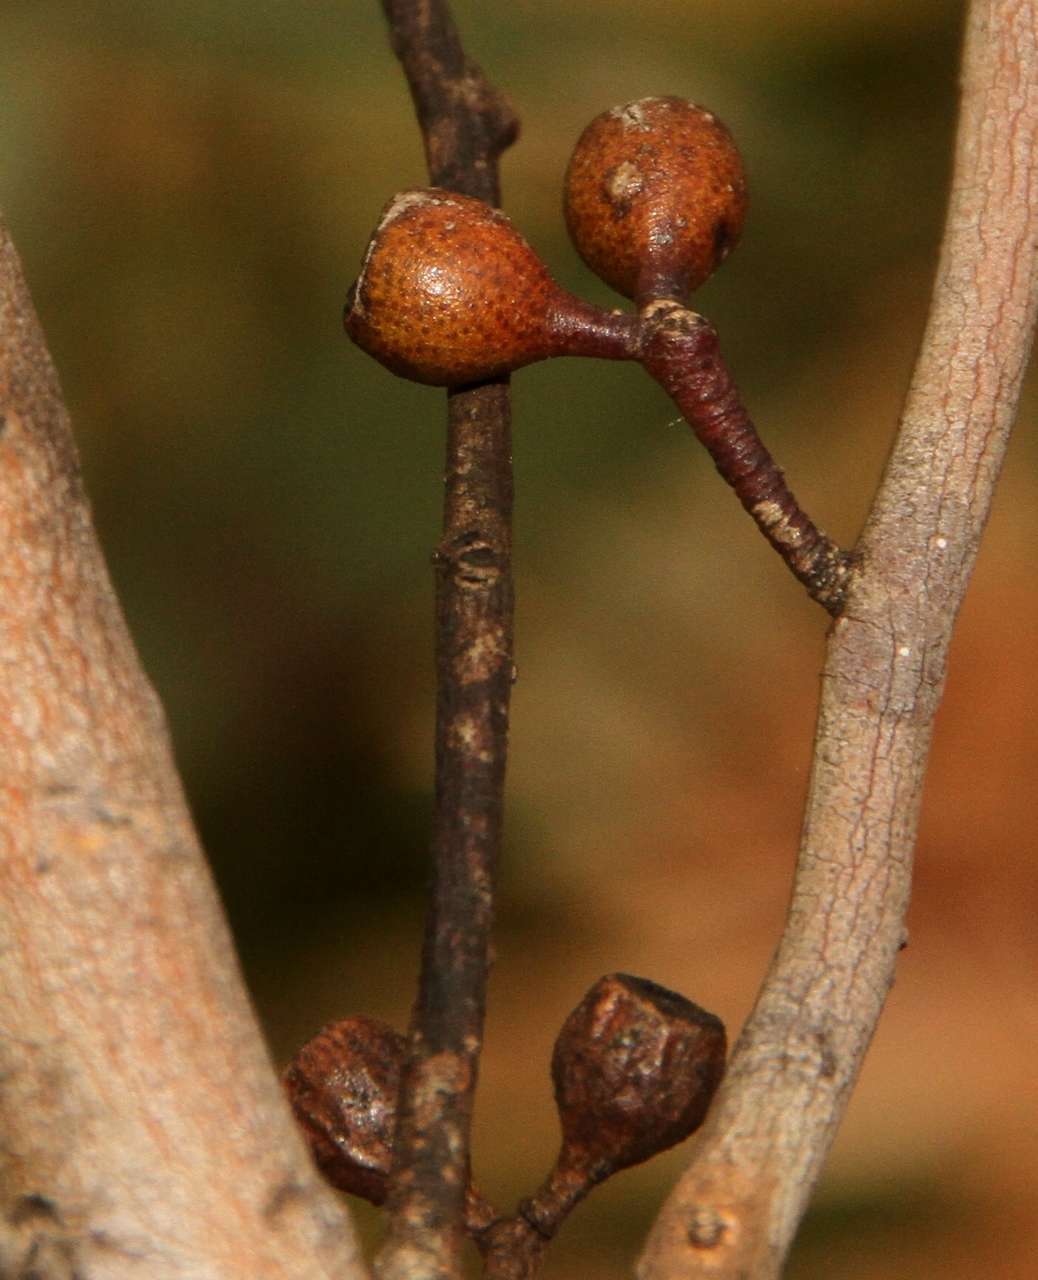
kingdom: Plantae
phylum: Tracheophyta
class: Magnoliopsida
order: Myrtales
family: Myrtaceae
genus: Eucalyptus
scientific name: Eucalyptus gracilis
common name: White mallee
